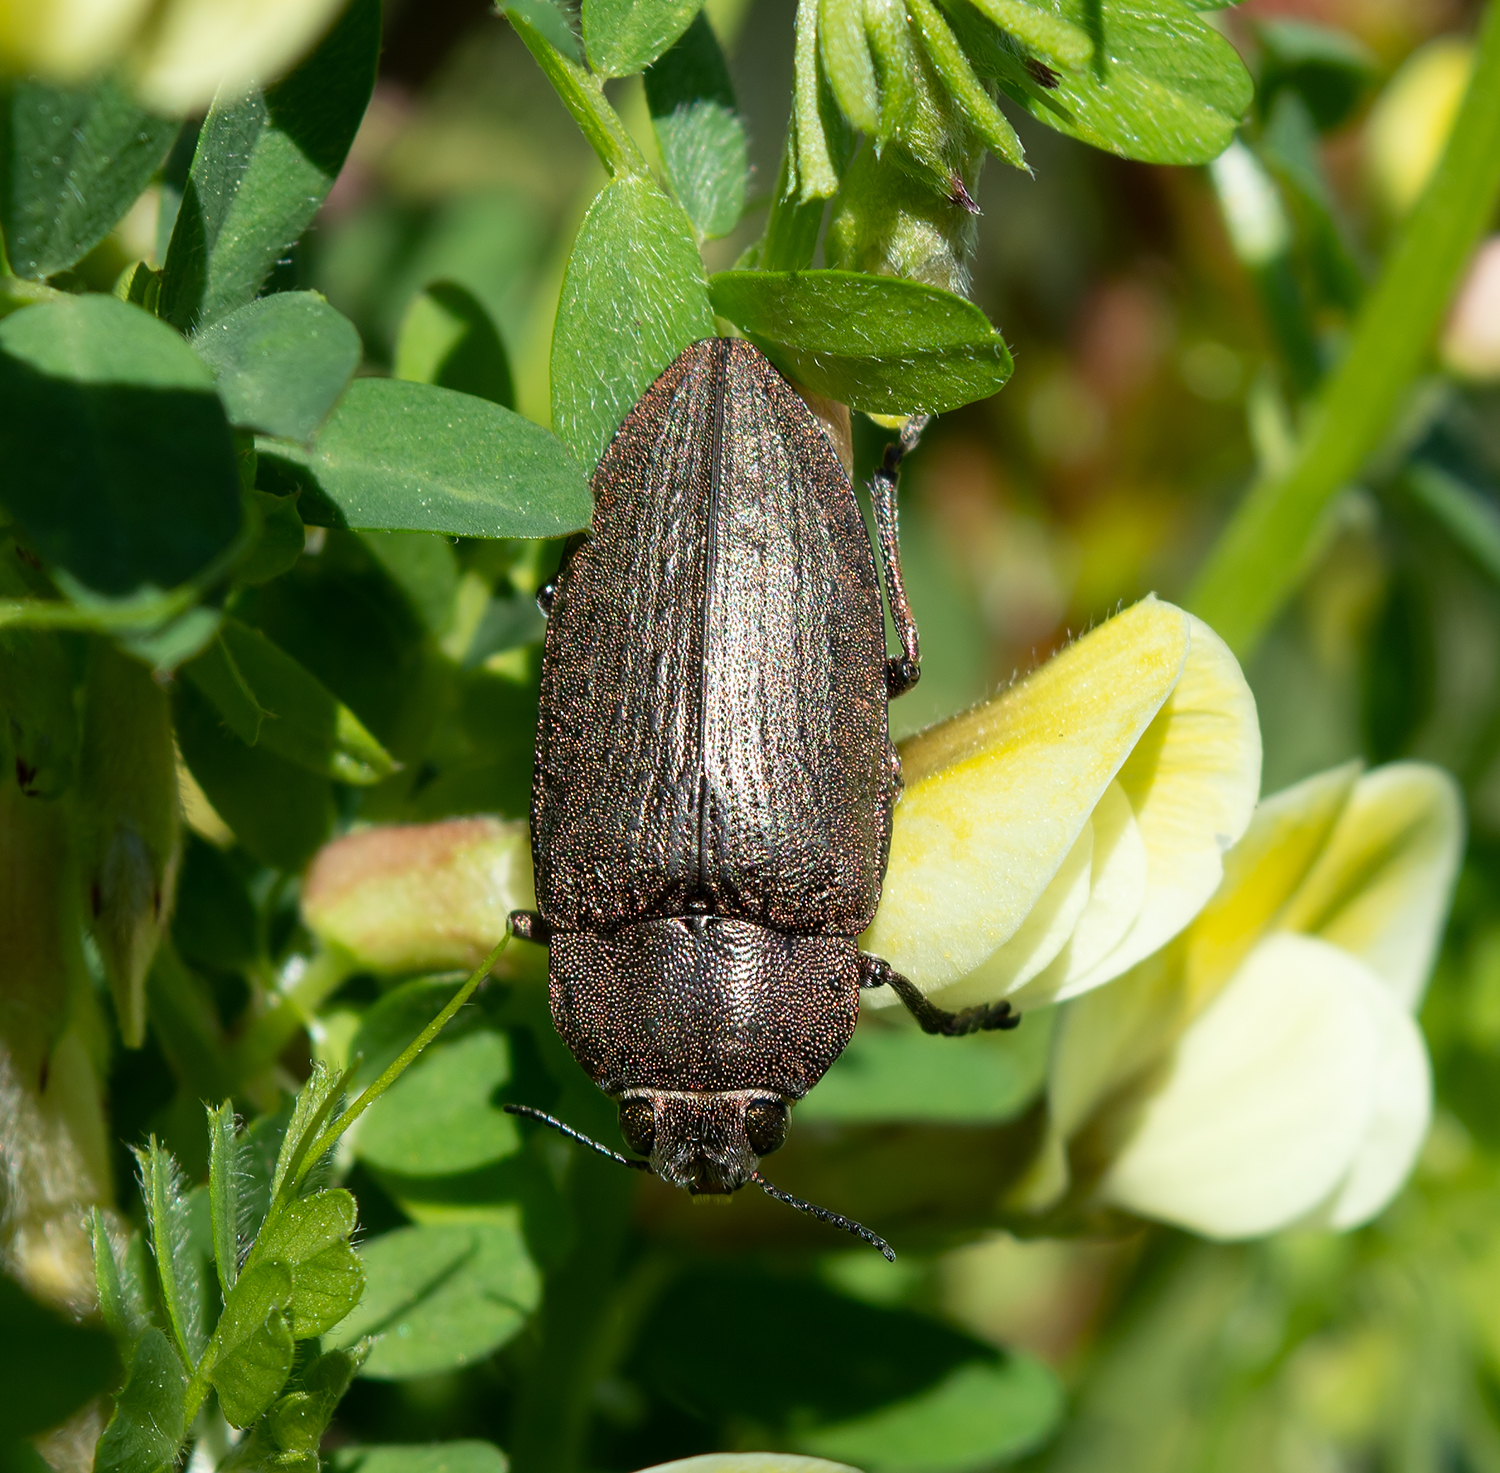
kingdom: Animalia
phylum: Arthropoda
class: Insecta
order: Coleoptera
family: Buprestidae
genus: Perotis
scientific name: Perotis lugubris
